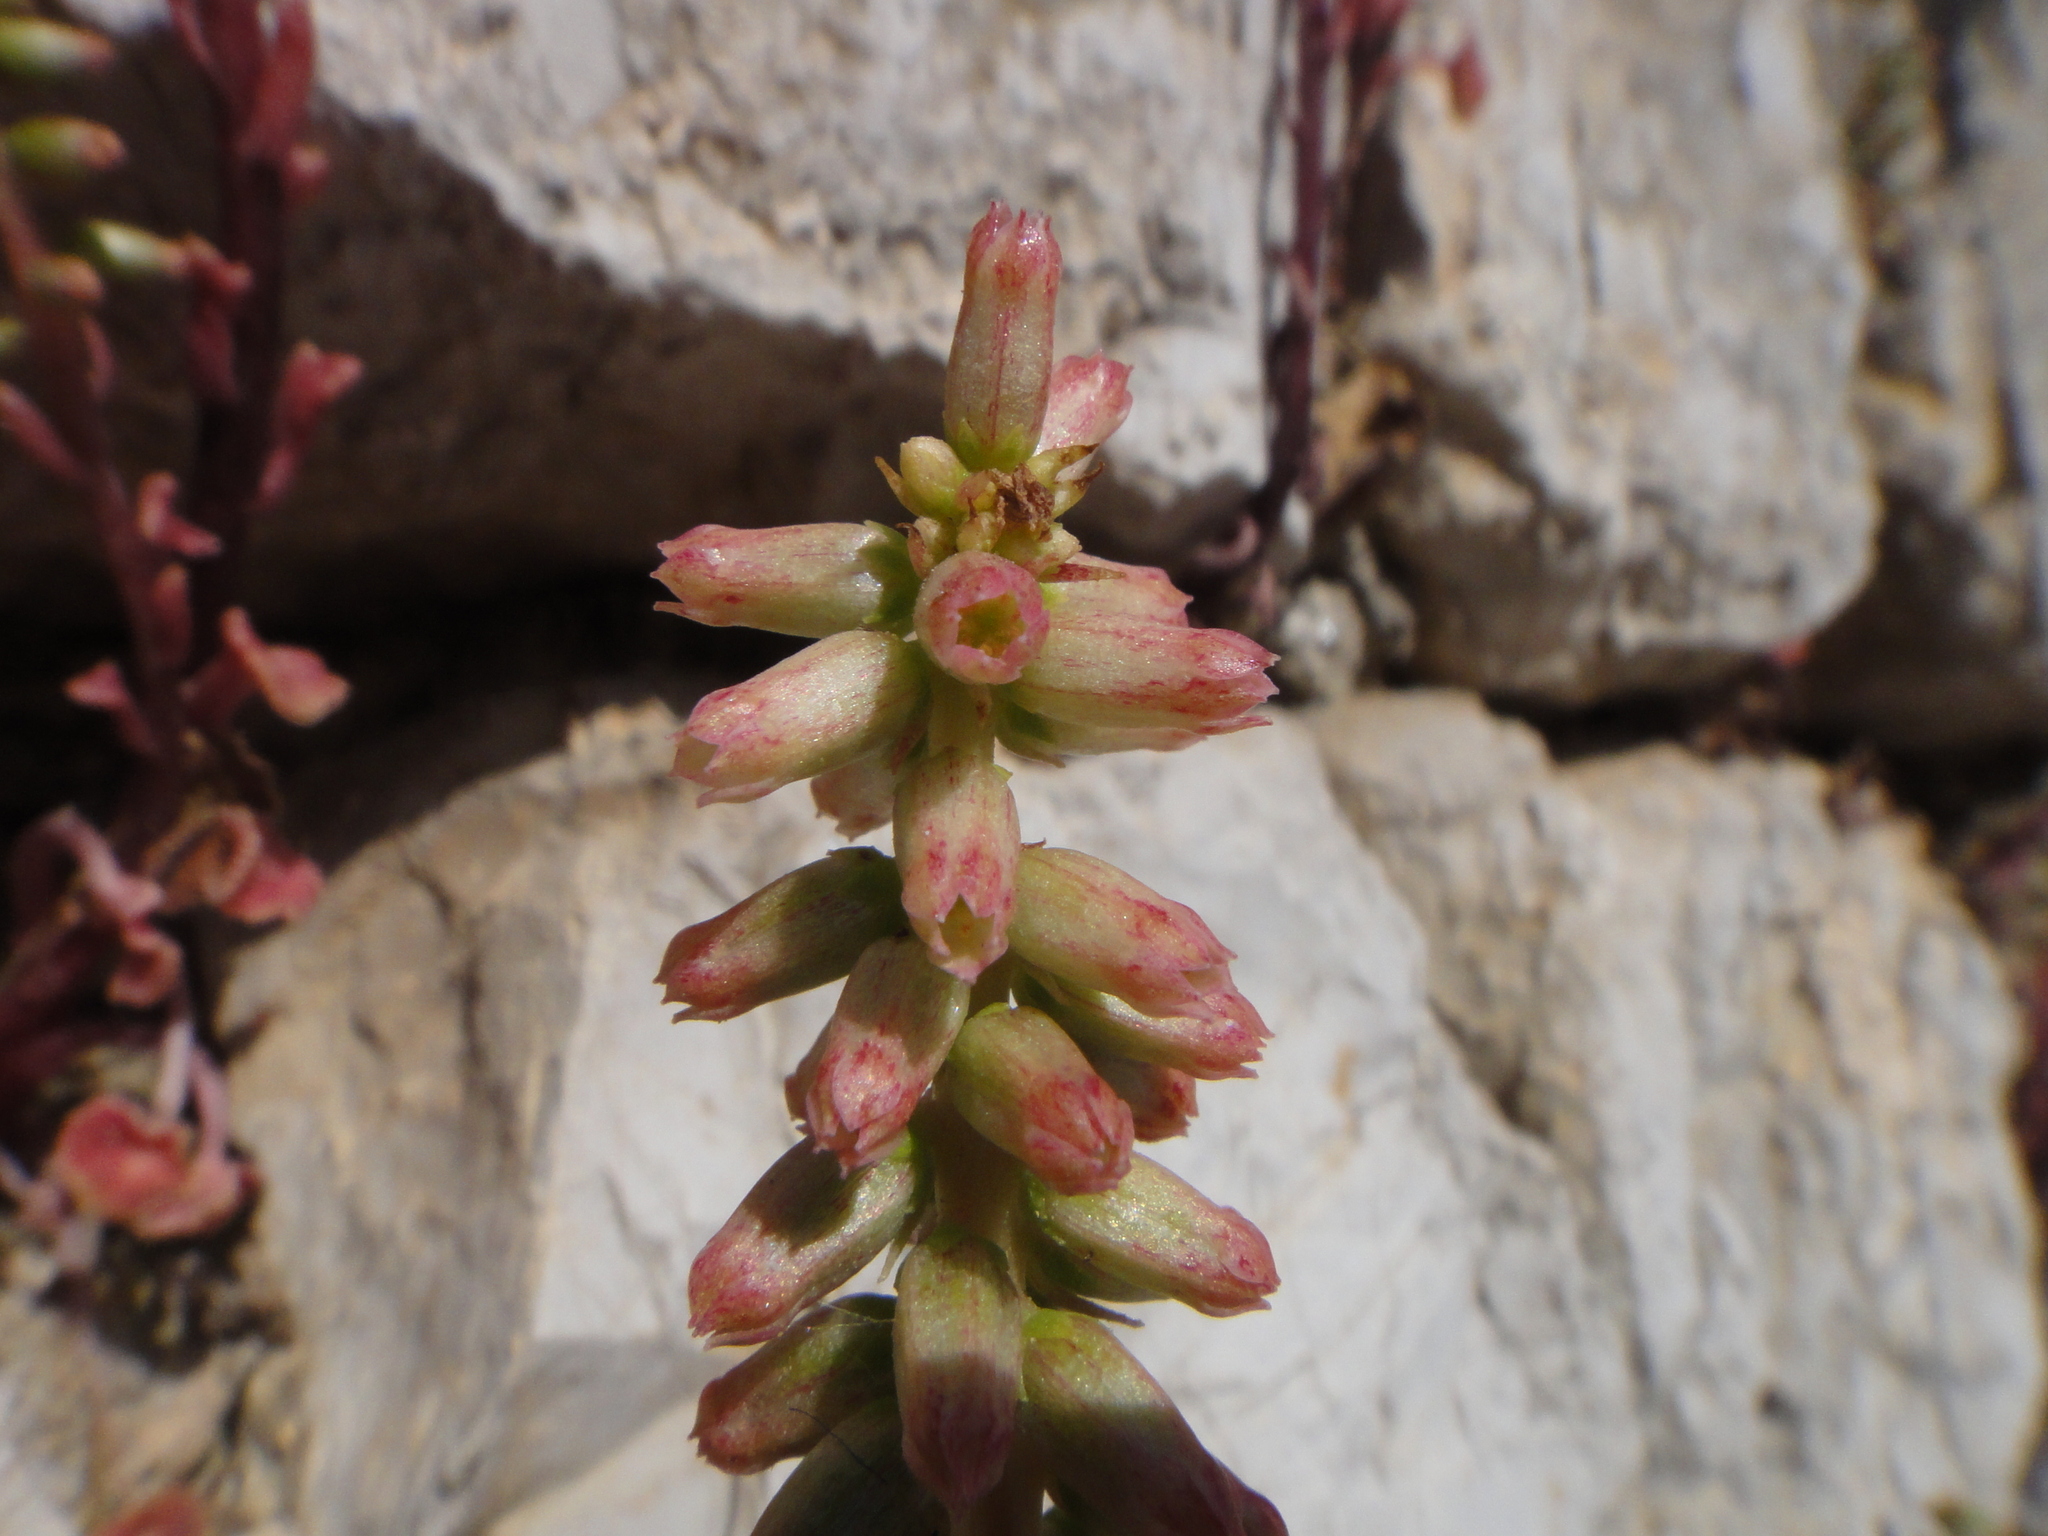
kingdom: Plantae
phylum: Tracheophyta
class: Magnoliopsida
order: Saxifragales
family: Crassulaceae
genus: Umbilicus
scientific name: Umbilicus horizontalis
